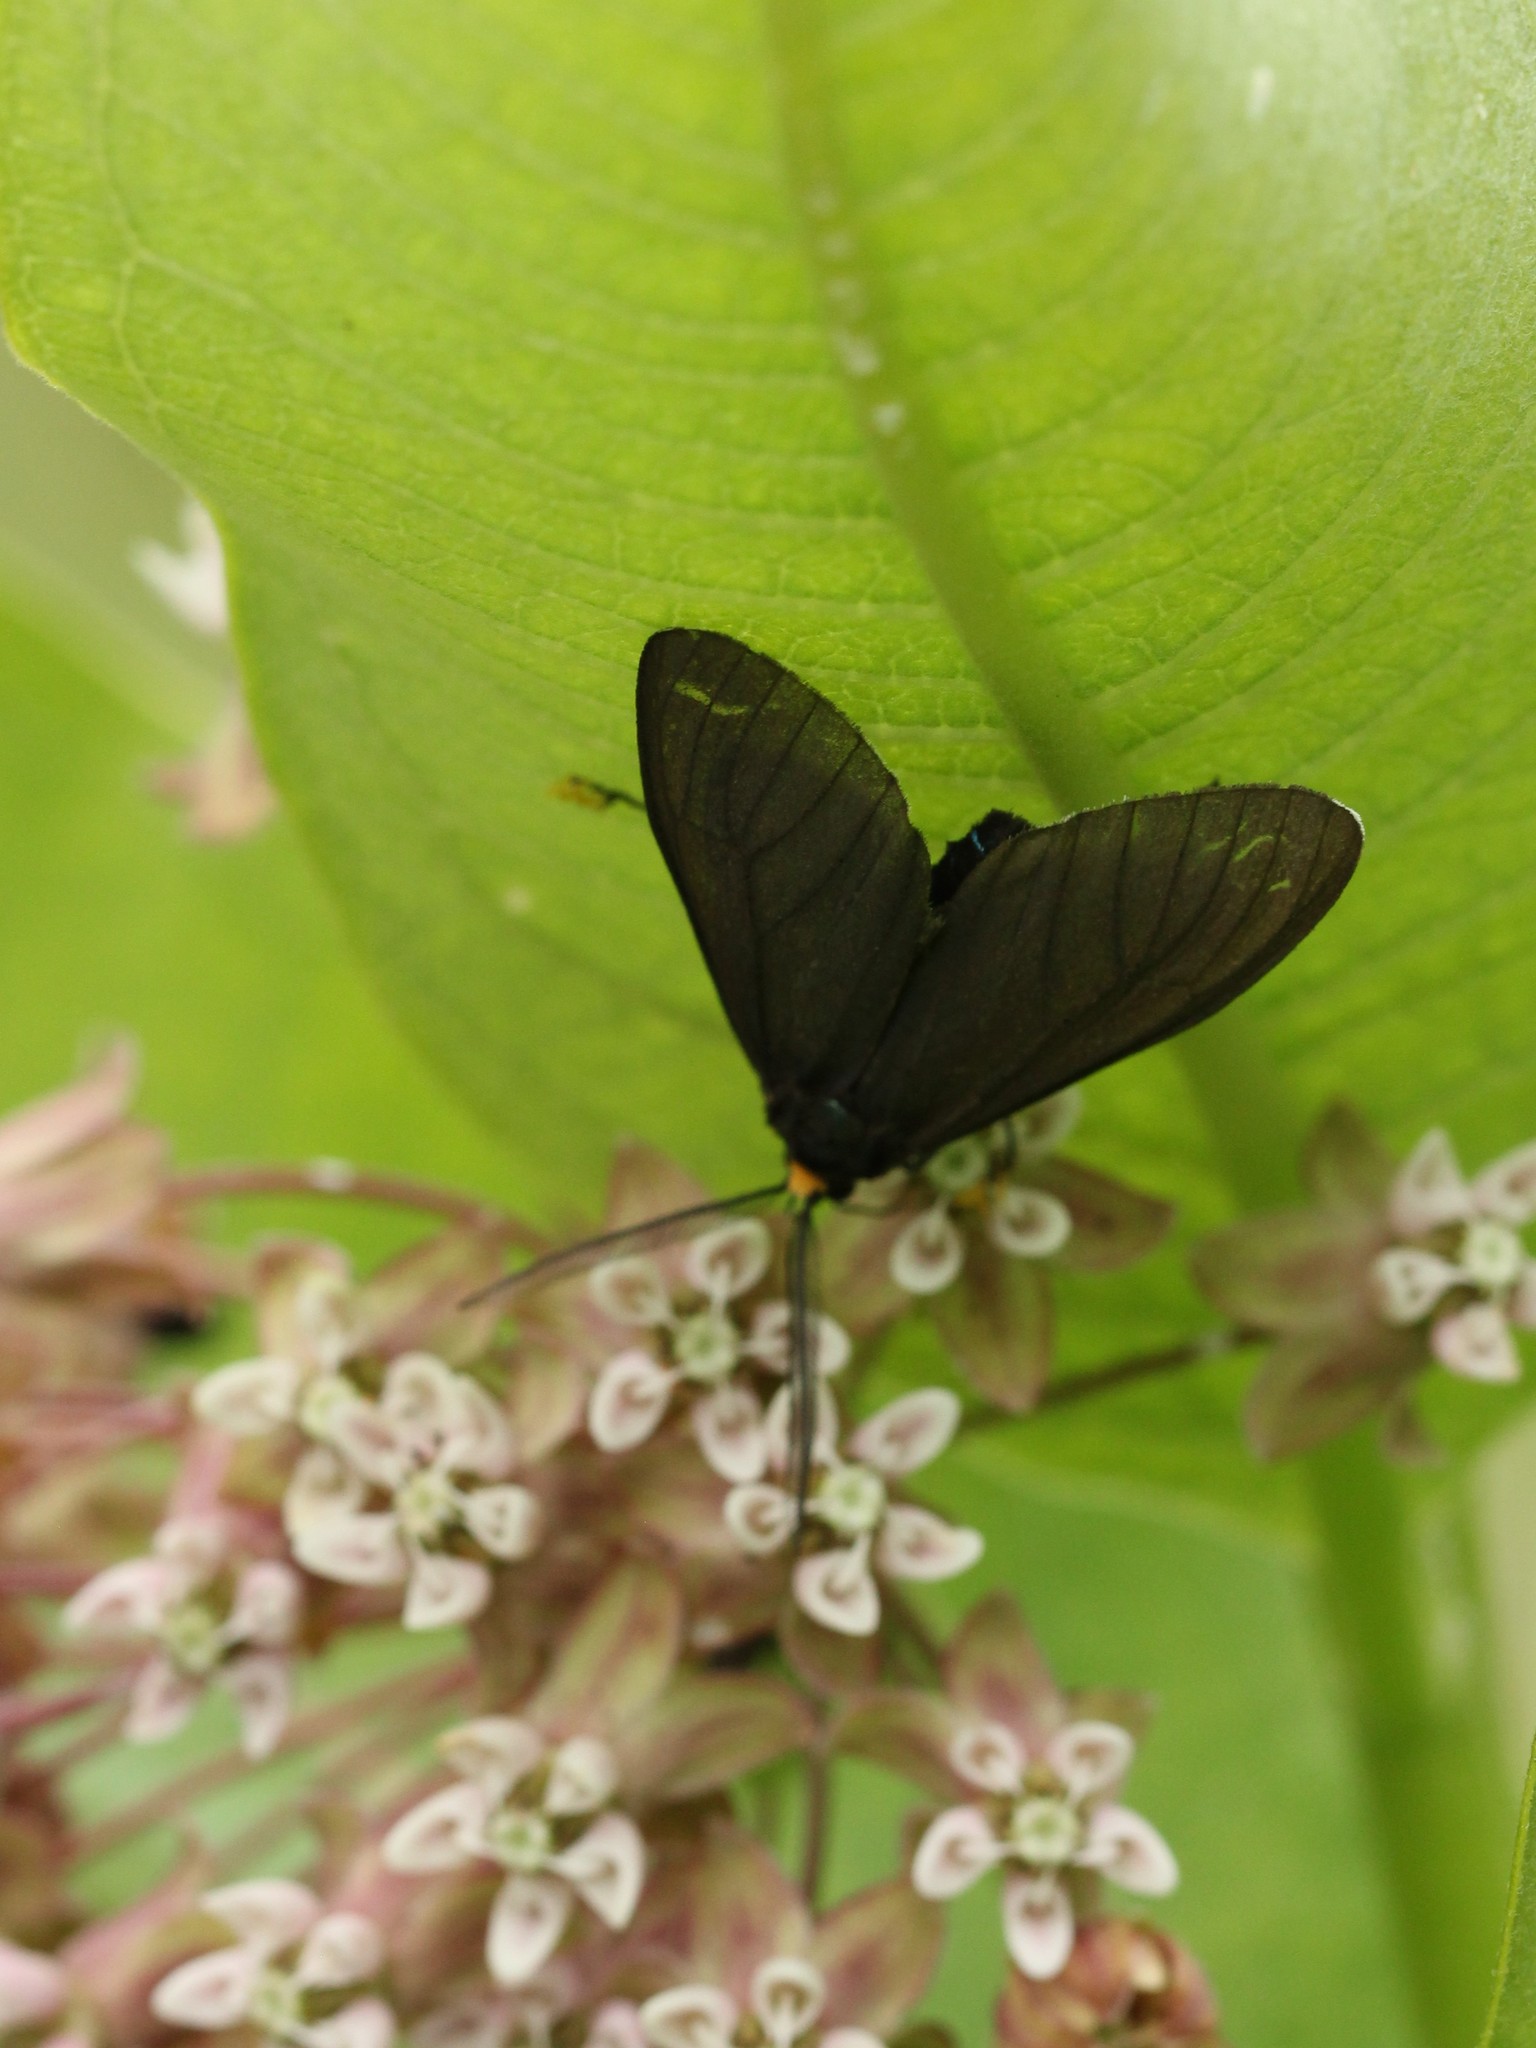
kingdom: Animalia
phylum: Arthropoda
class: Insecta
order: Lepidoptera
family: Erebidae
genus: Ctenucha
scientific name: Ctenucha virginica
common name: Virginia ctenucha moth
